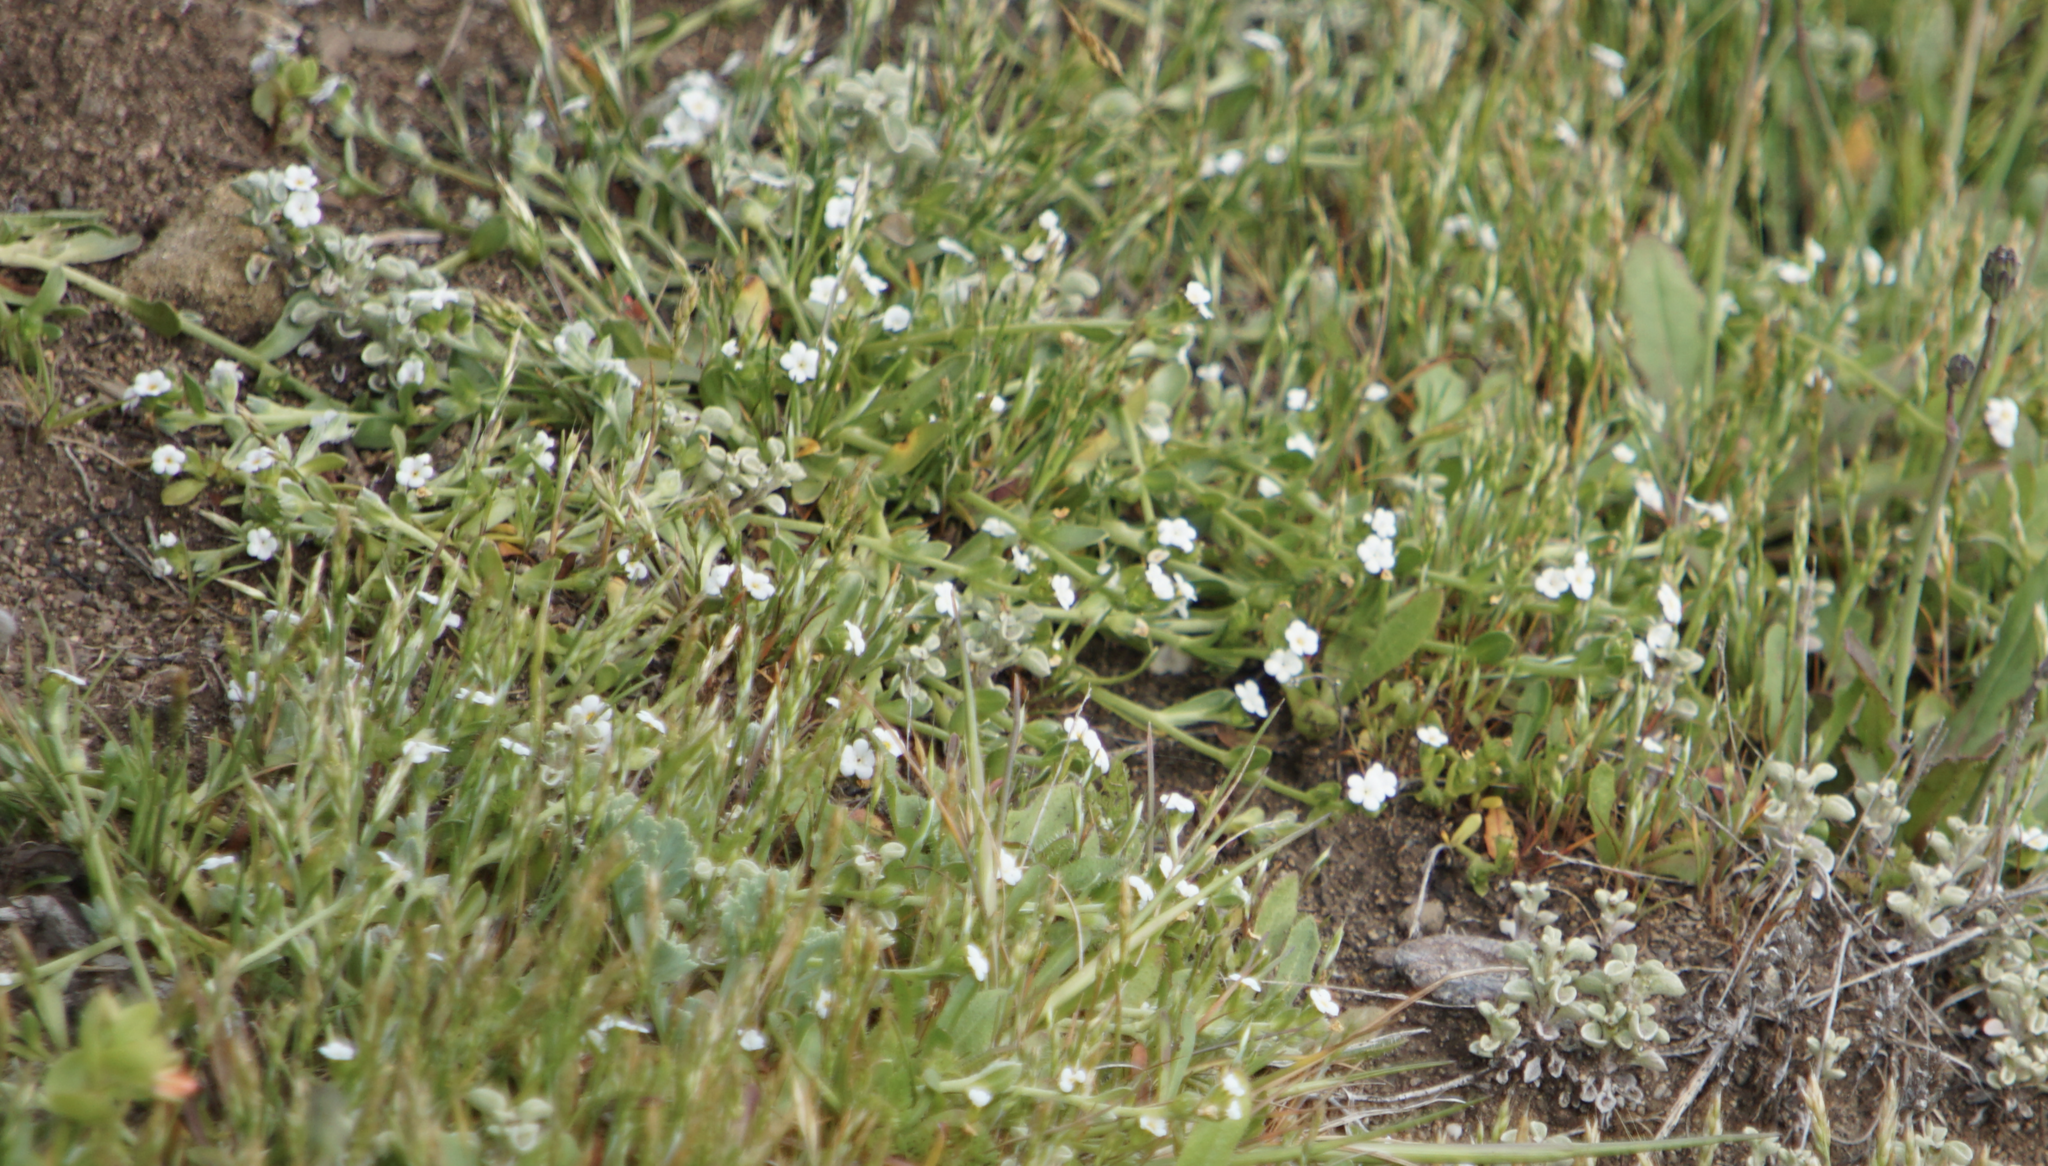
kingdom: Plantae
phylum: Tracheophyta
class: Magnoliopsida
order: Boraginales
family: Boraginaceae
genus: Plagiobothrys
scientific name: Plagiobothrys reticulatus
